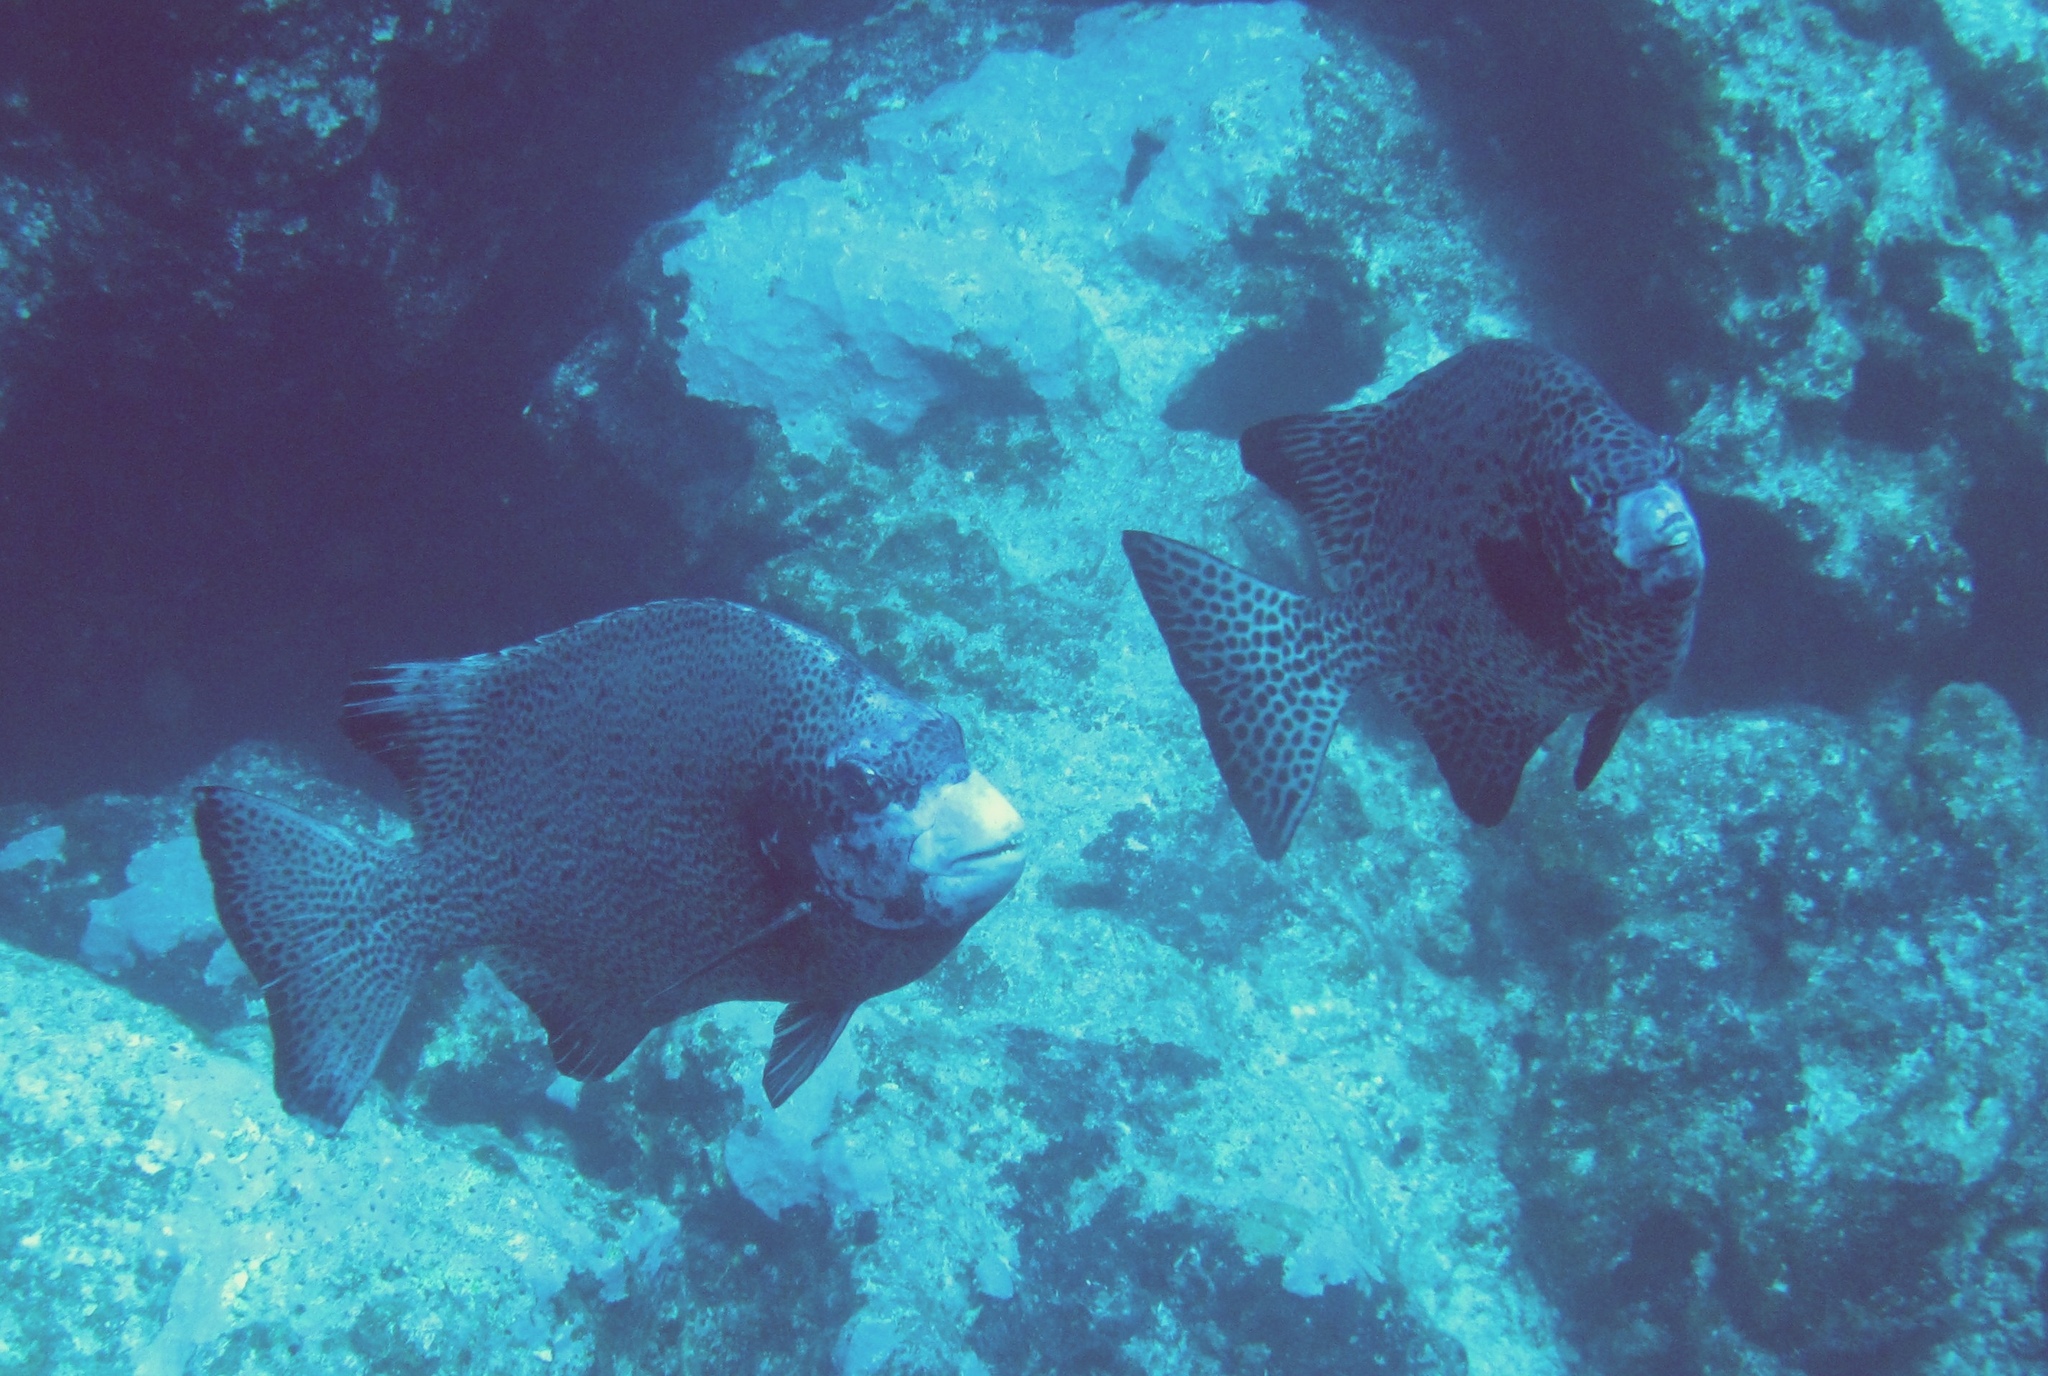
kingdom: Animalia
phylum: Chordata
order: Perciformes
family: Oplegnathidae
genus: Oplegnathus
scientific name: Oplegnathus punctatus
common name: Spotted knifejaw
